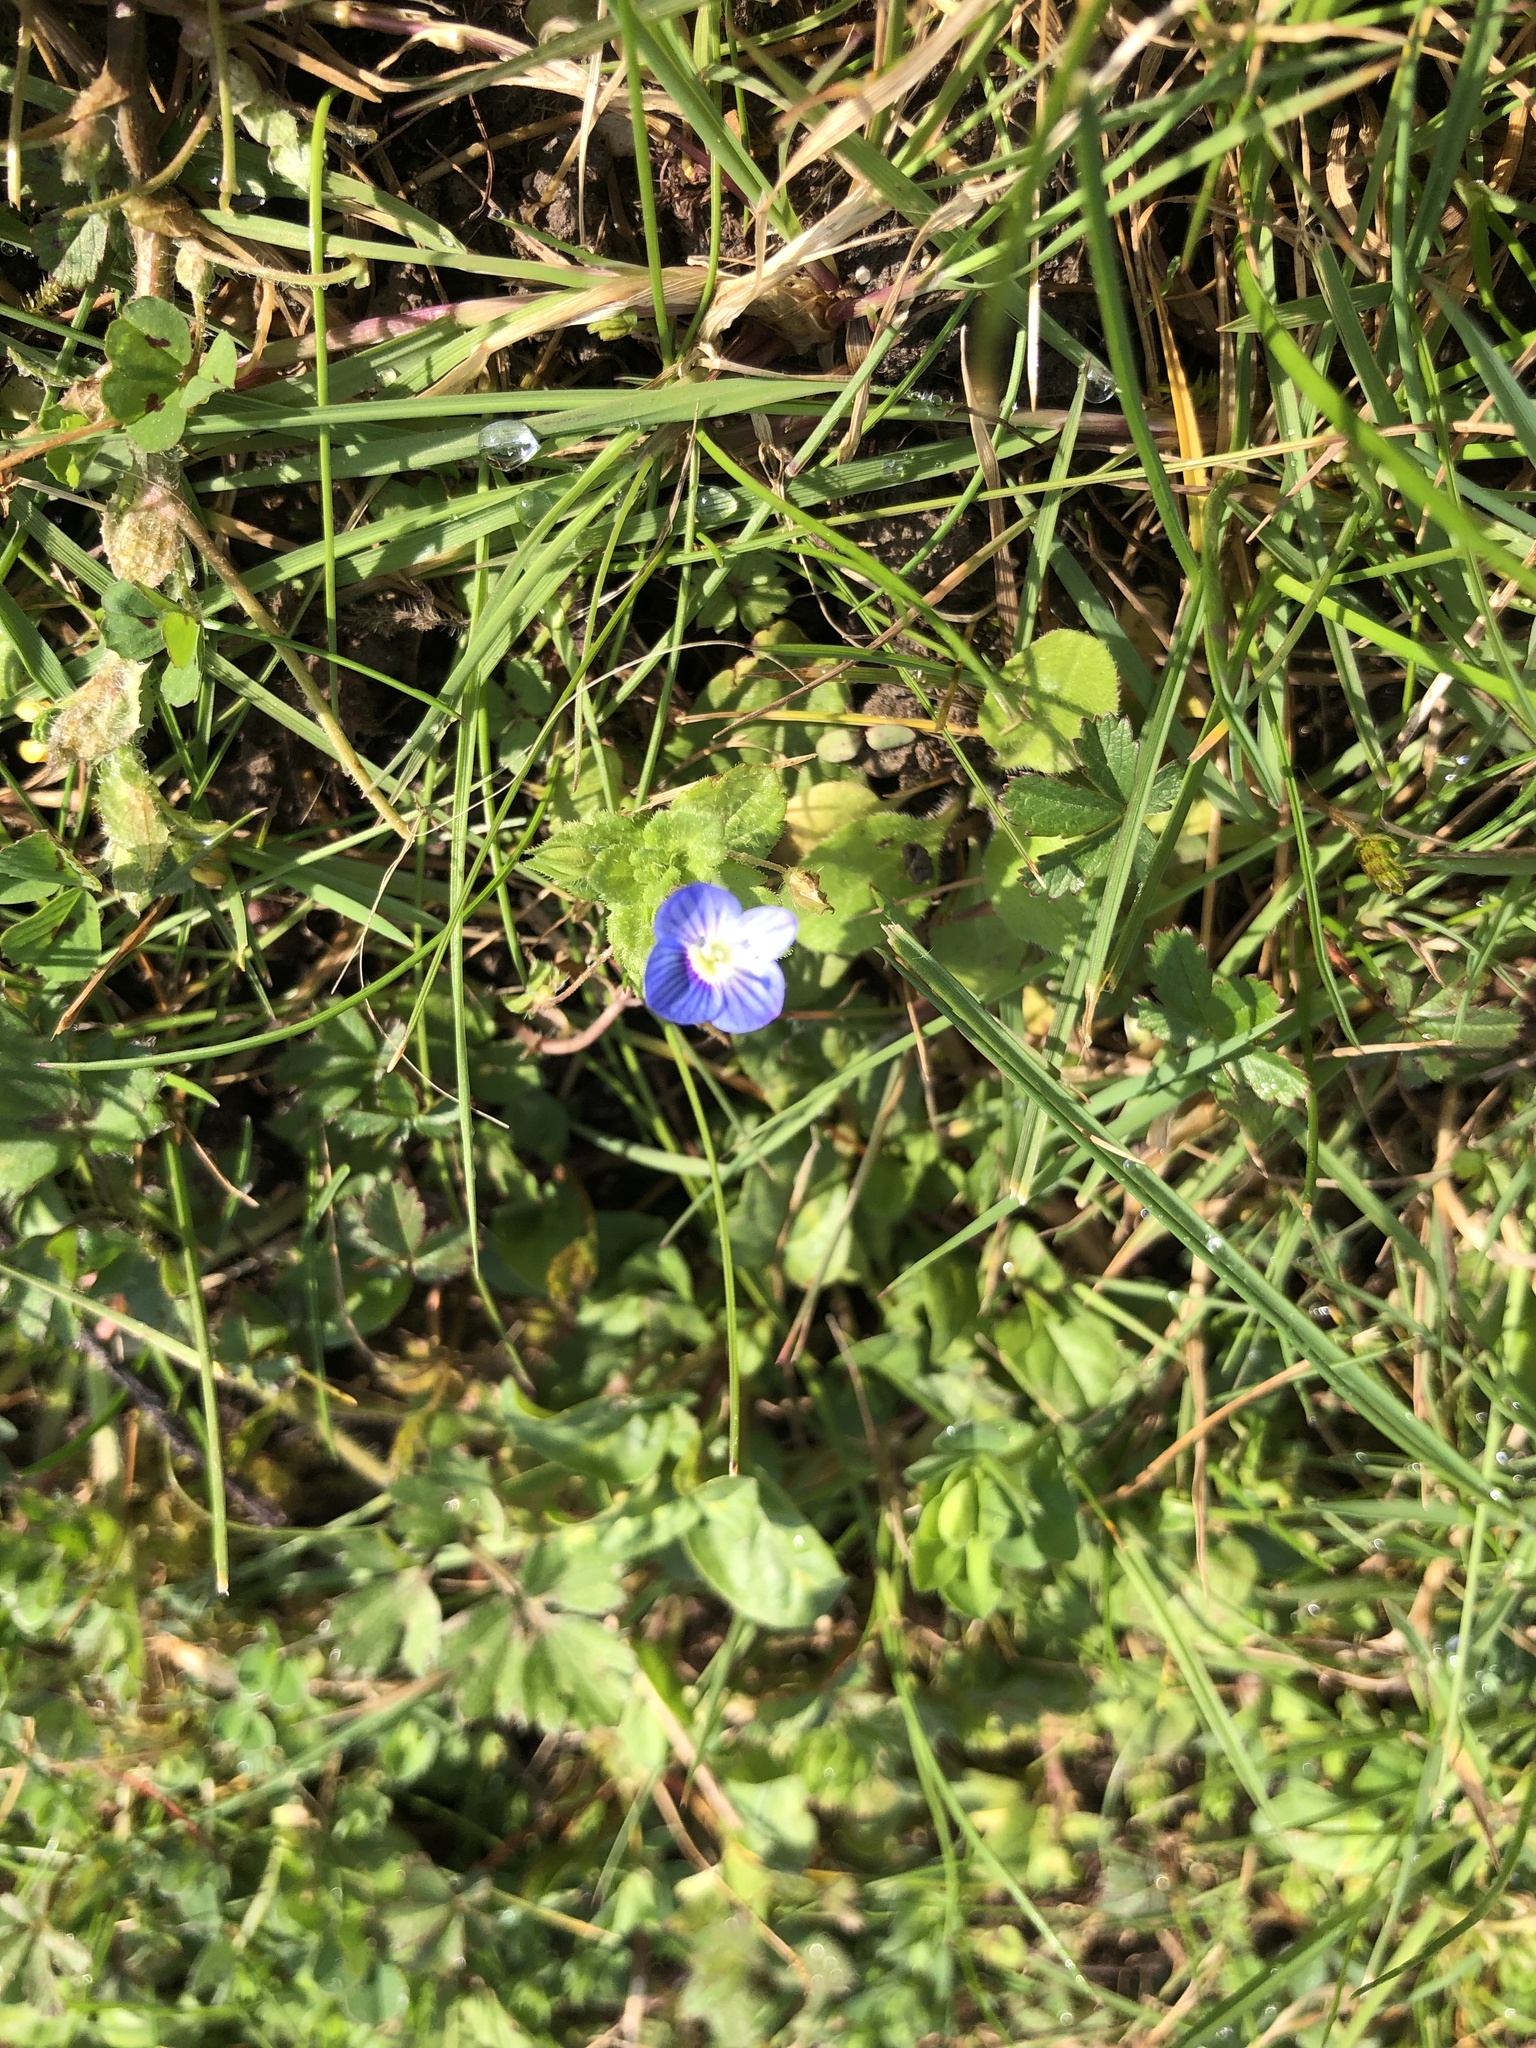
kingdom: Plantae
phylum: Tracheophyta
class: Magnoliopsida
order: Lamiales
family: Plantaginaceae
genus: Veronica
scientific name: Veronica persica
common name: Common field-speedwell
